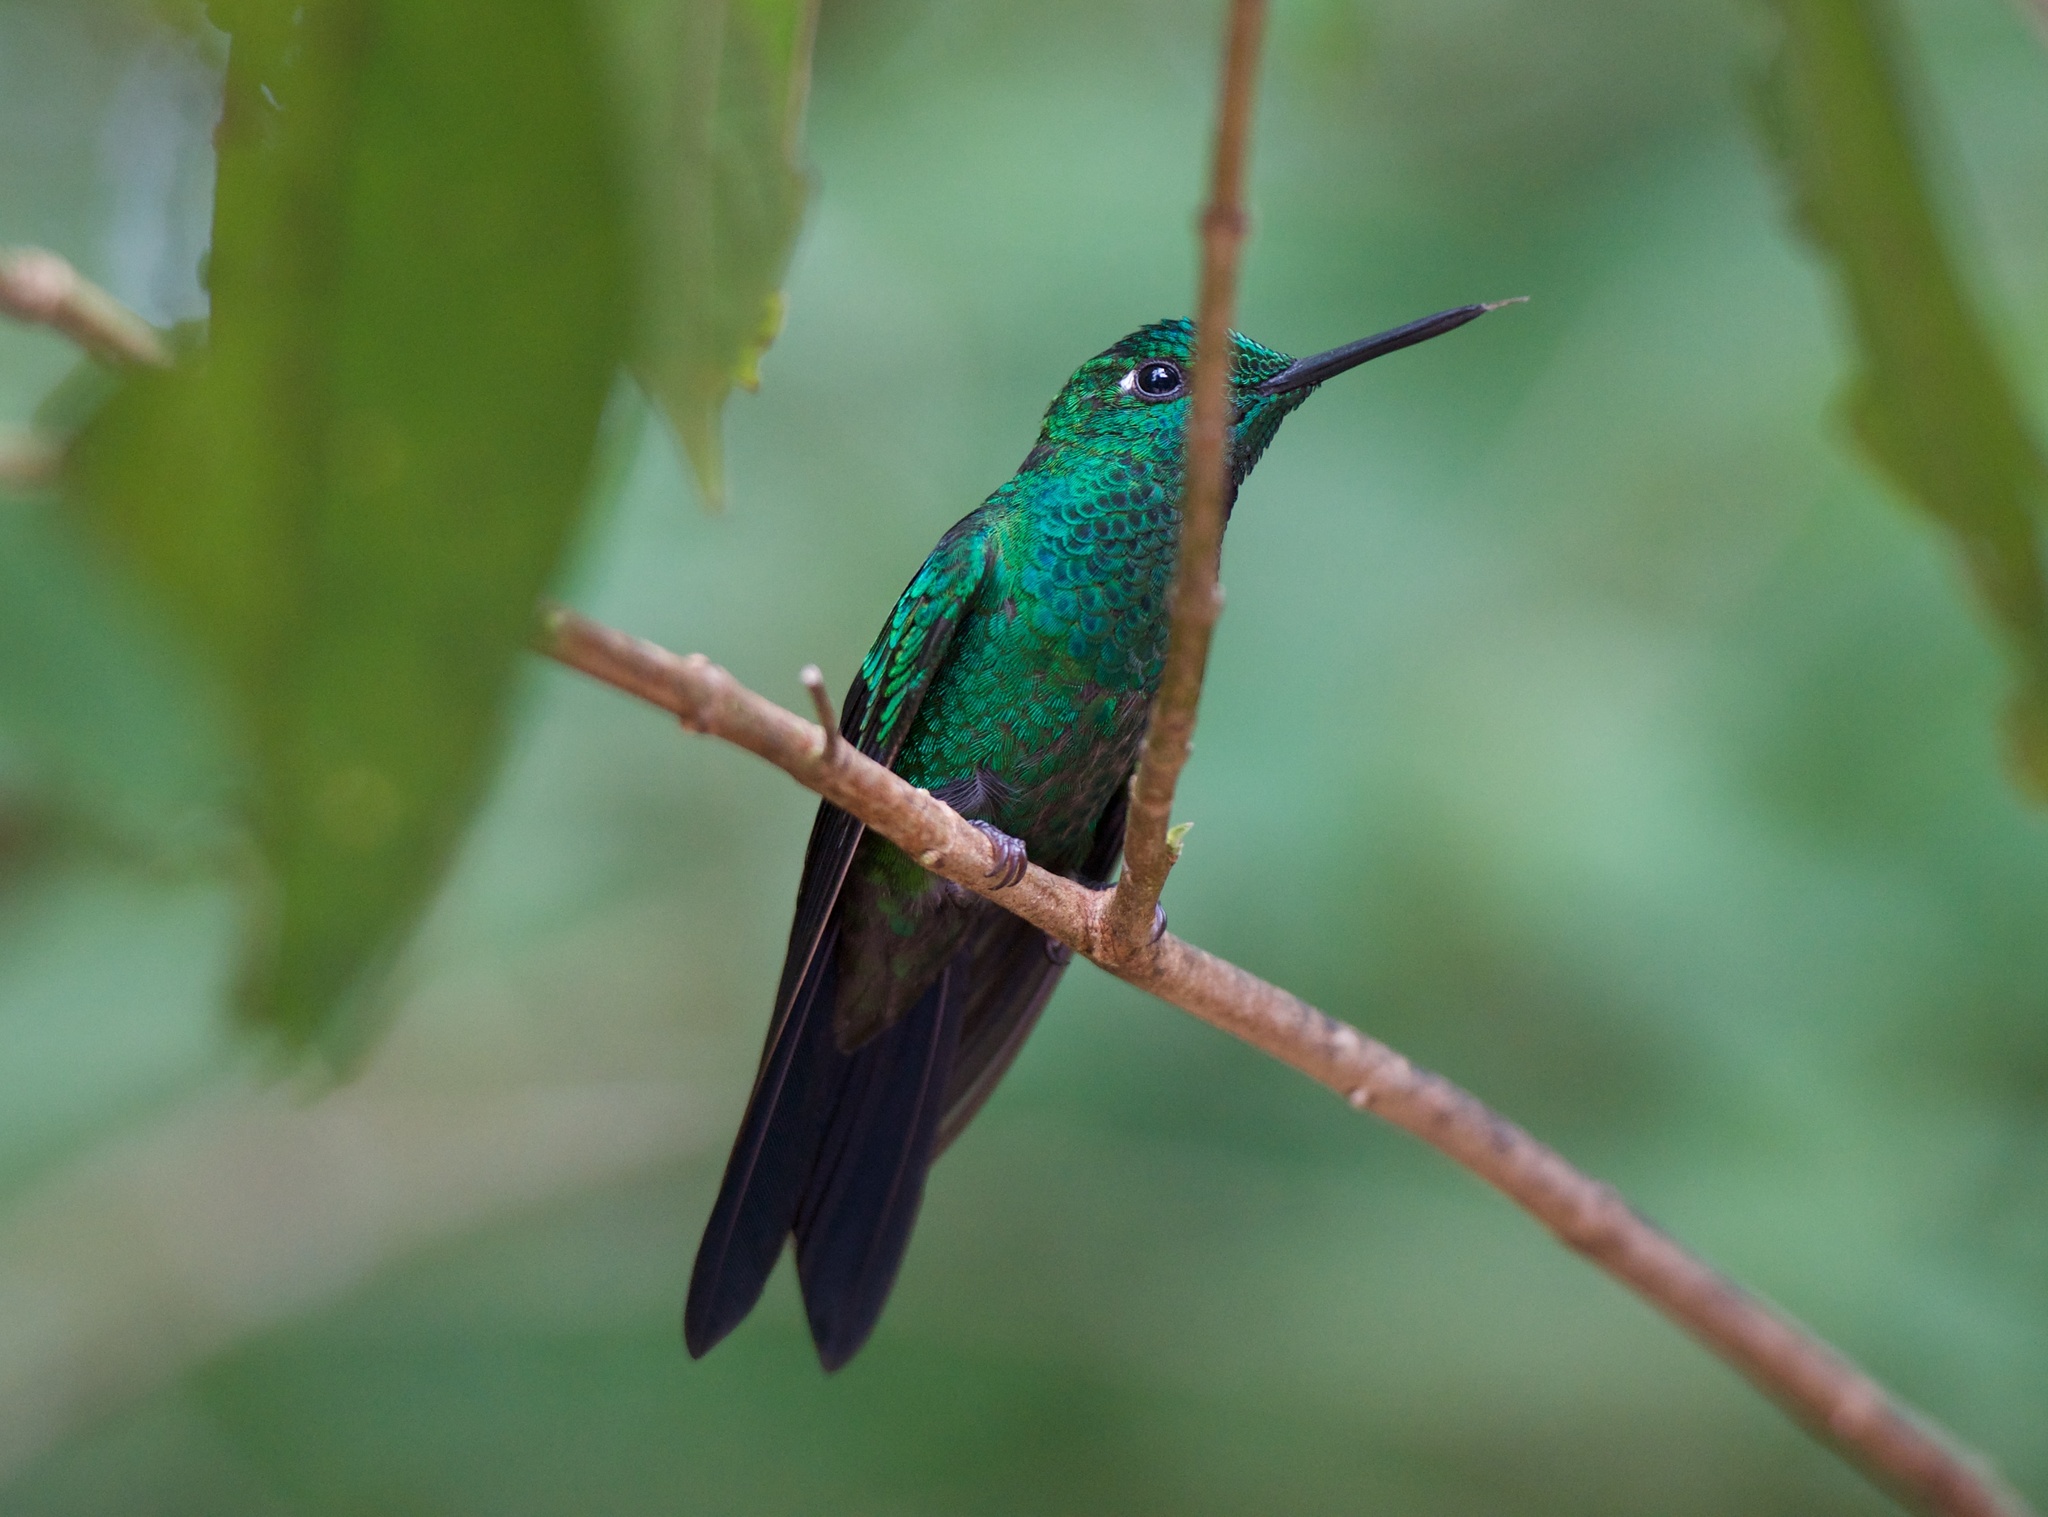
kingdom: Animalia
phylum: Chordata
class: Aves
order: Apodiformes
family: Trochilidae
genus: Heliodoxa
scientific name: Heliodoxa jacula
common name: Green-crowned brilliant
